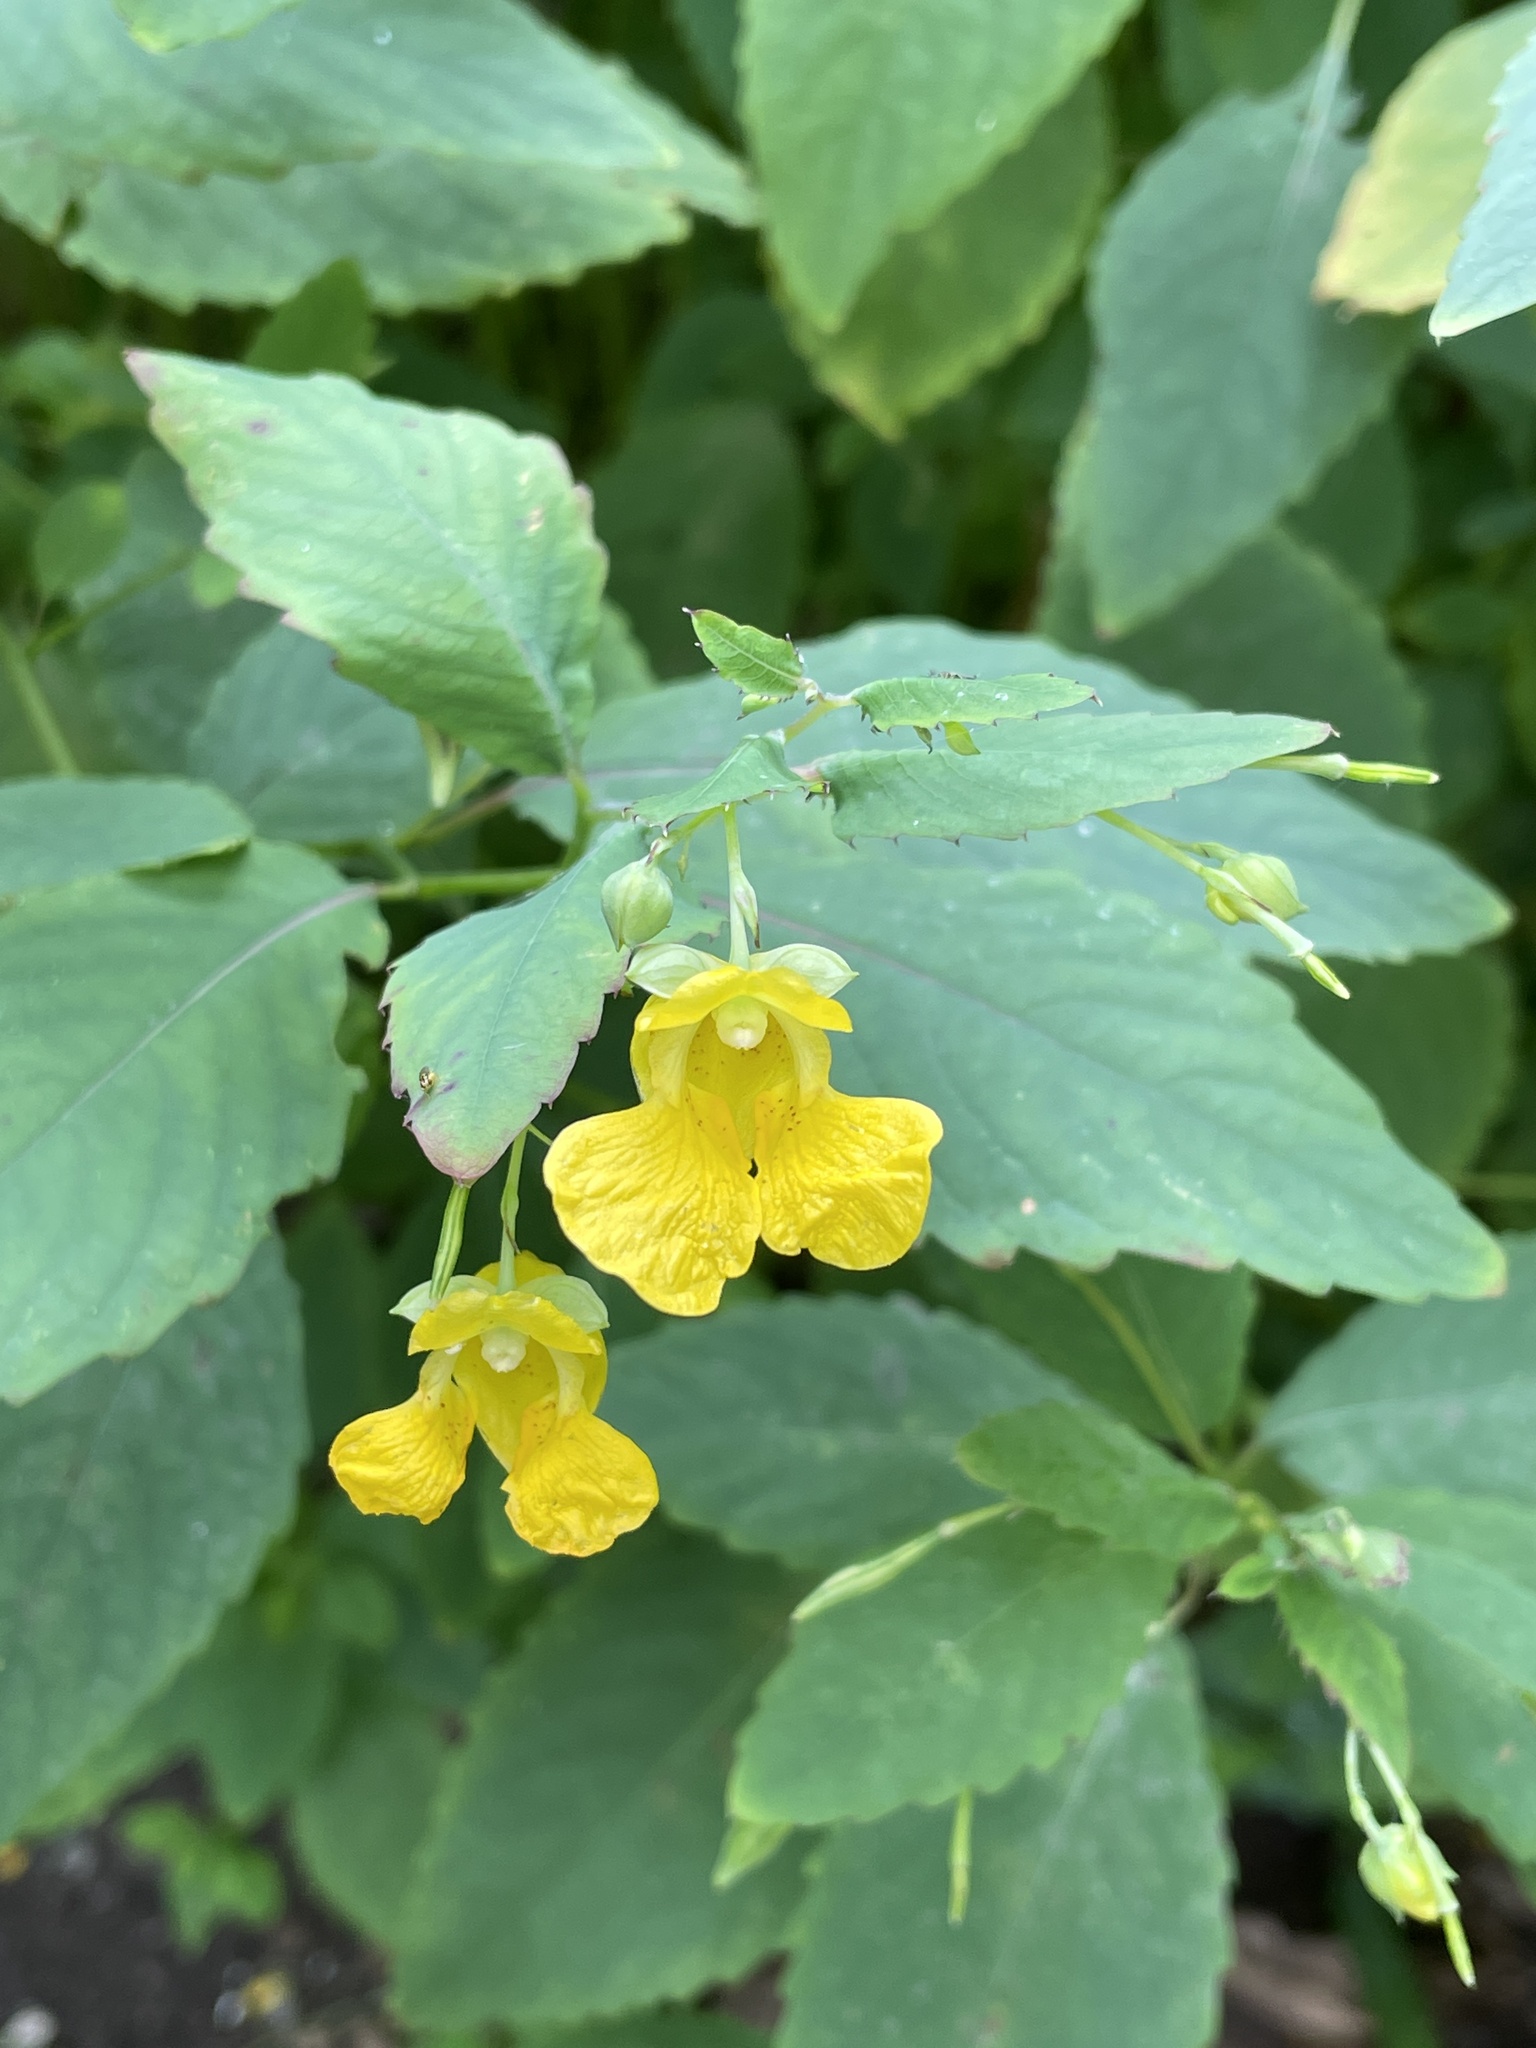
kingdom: Plantae
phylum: Tracheophyta
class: Magnoliopsida
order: Ericales
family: Balsaminaceae
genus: Impatiens
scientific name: Impatiens pallida
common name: Pale snapweed
